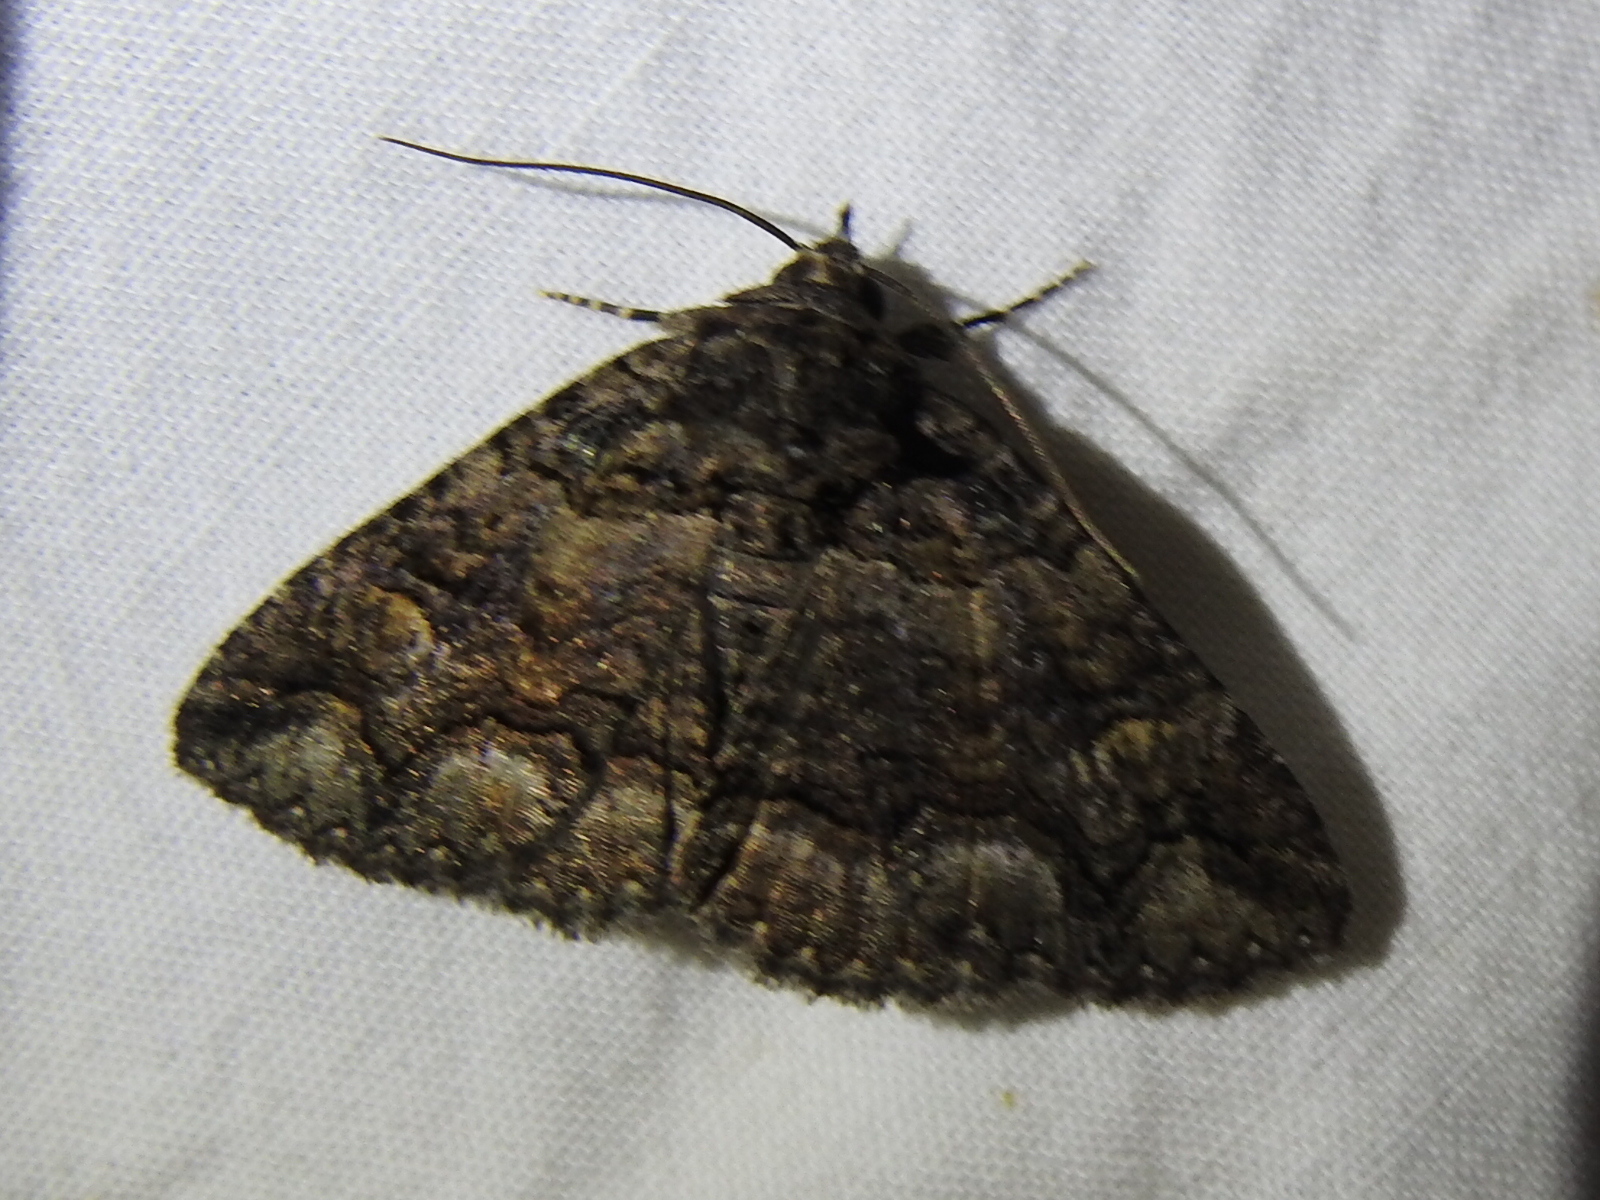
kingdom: Animalia
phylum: Arthropoda
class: Insecta
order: Lepidoptera
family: Erebidae
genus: Elousa
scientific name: Elousa mima
